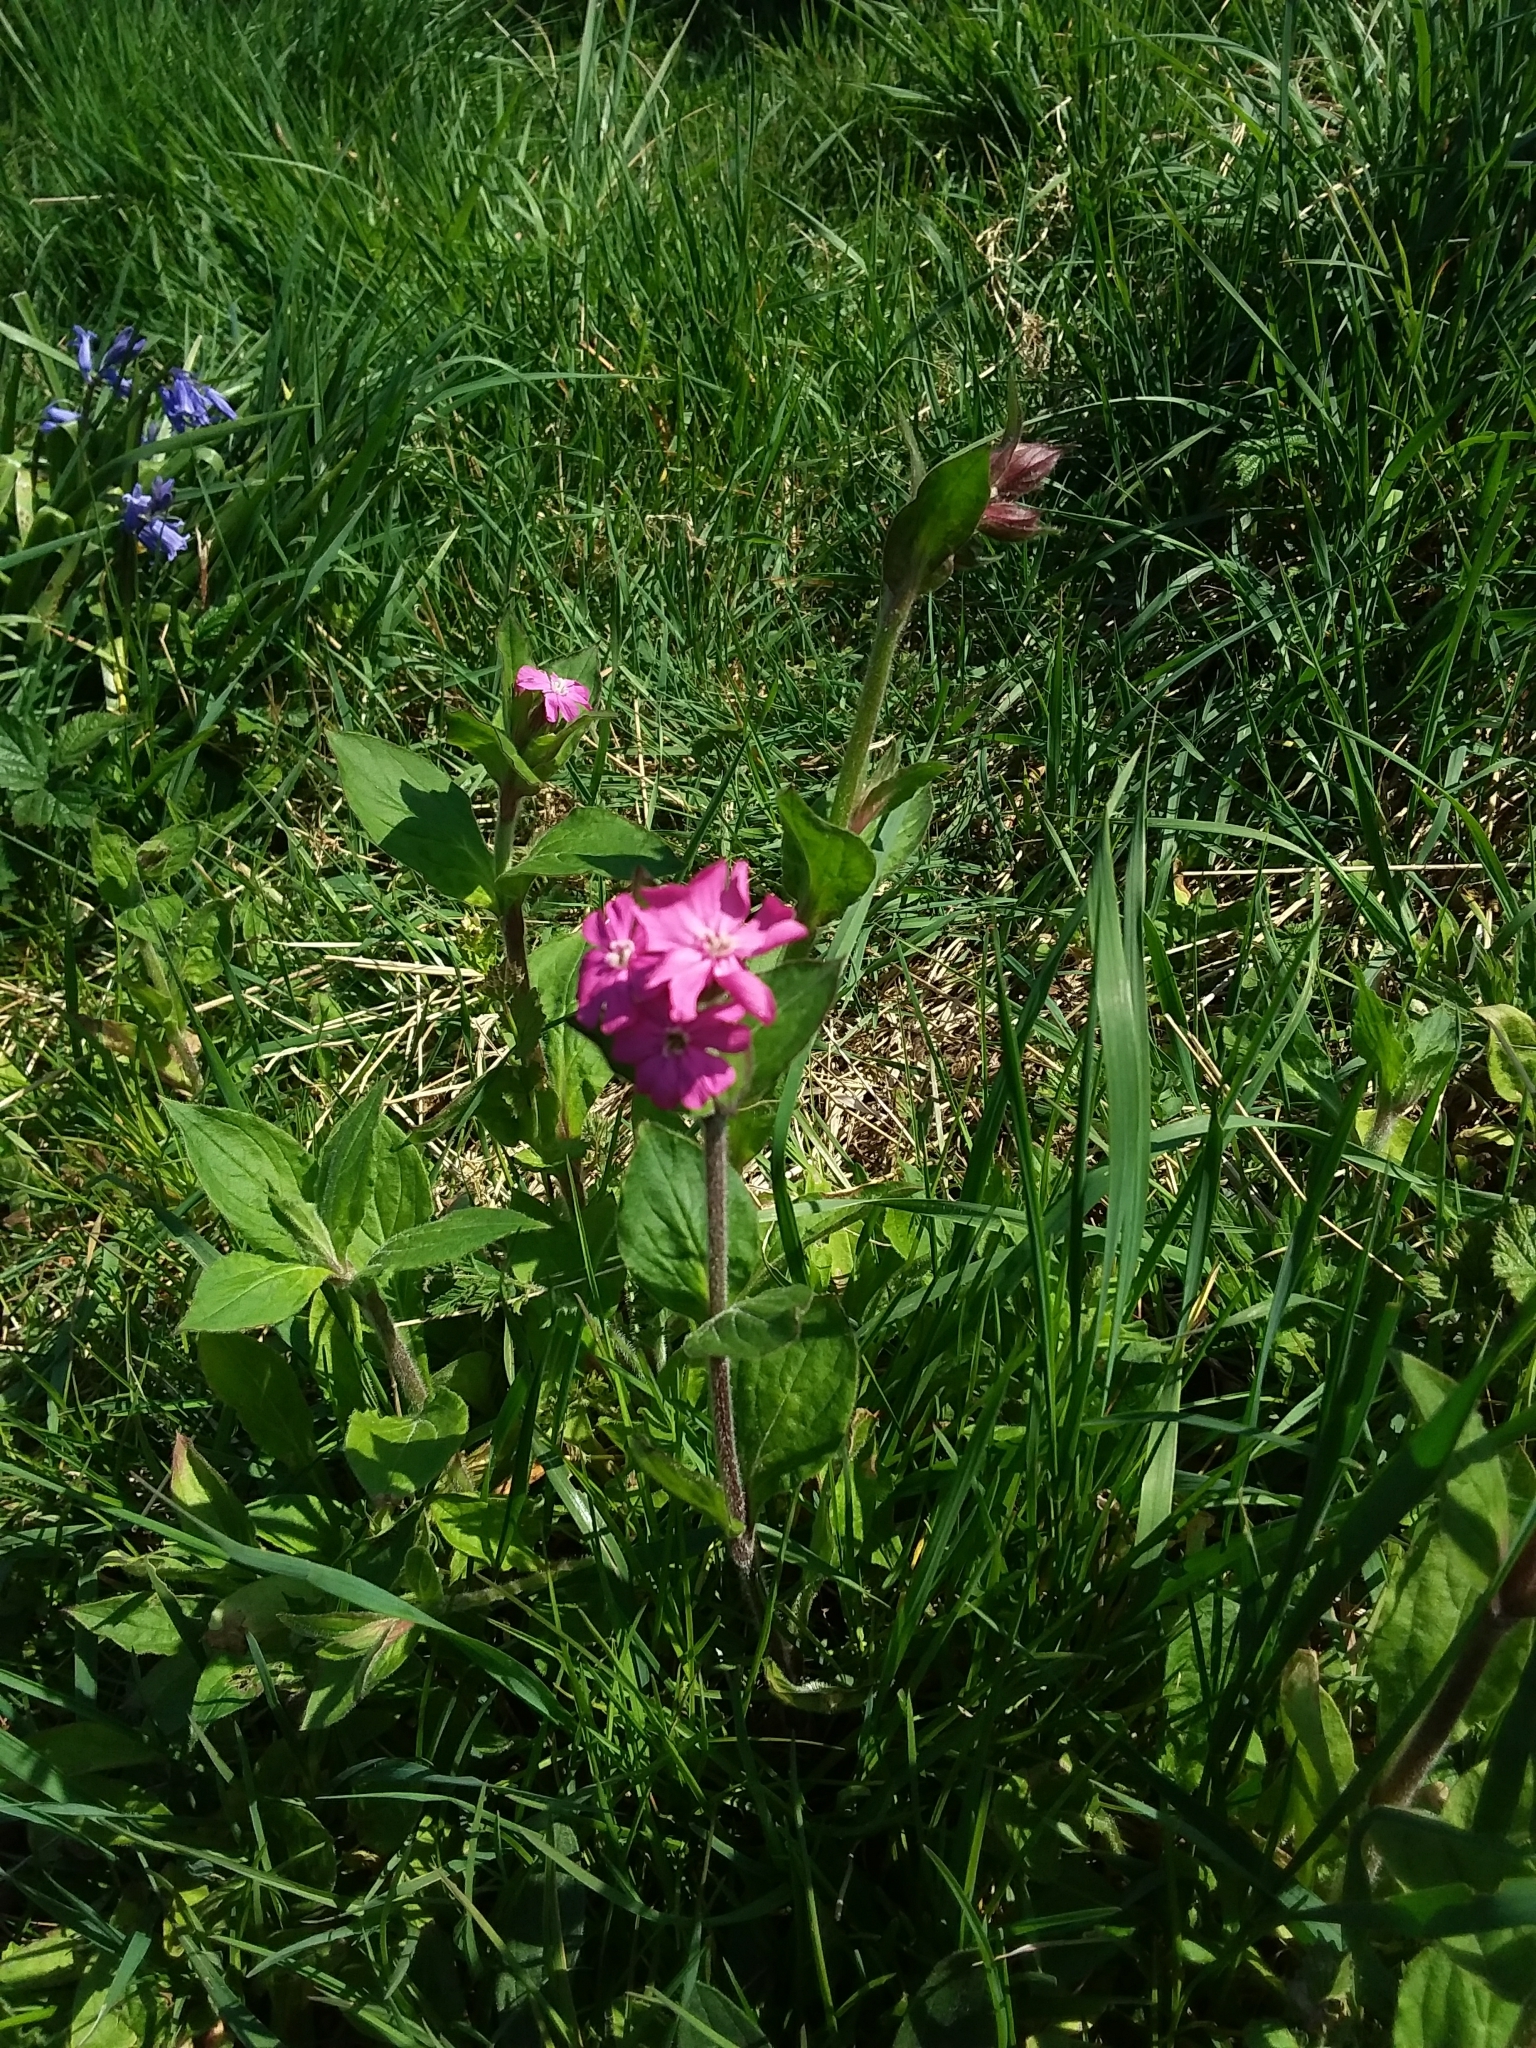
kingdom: Plantae
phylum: Tracheophyta
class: Magnoliopsida
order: Caryophyllales
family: Caryophyllaceae
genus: Silene
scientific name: Silene dioica
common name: Red campion
